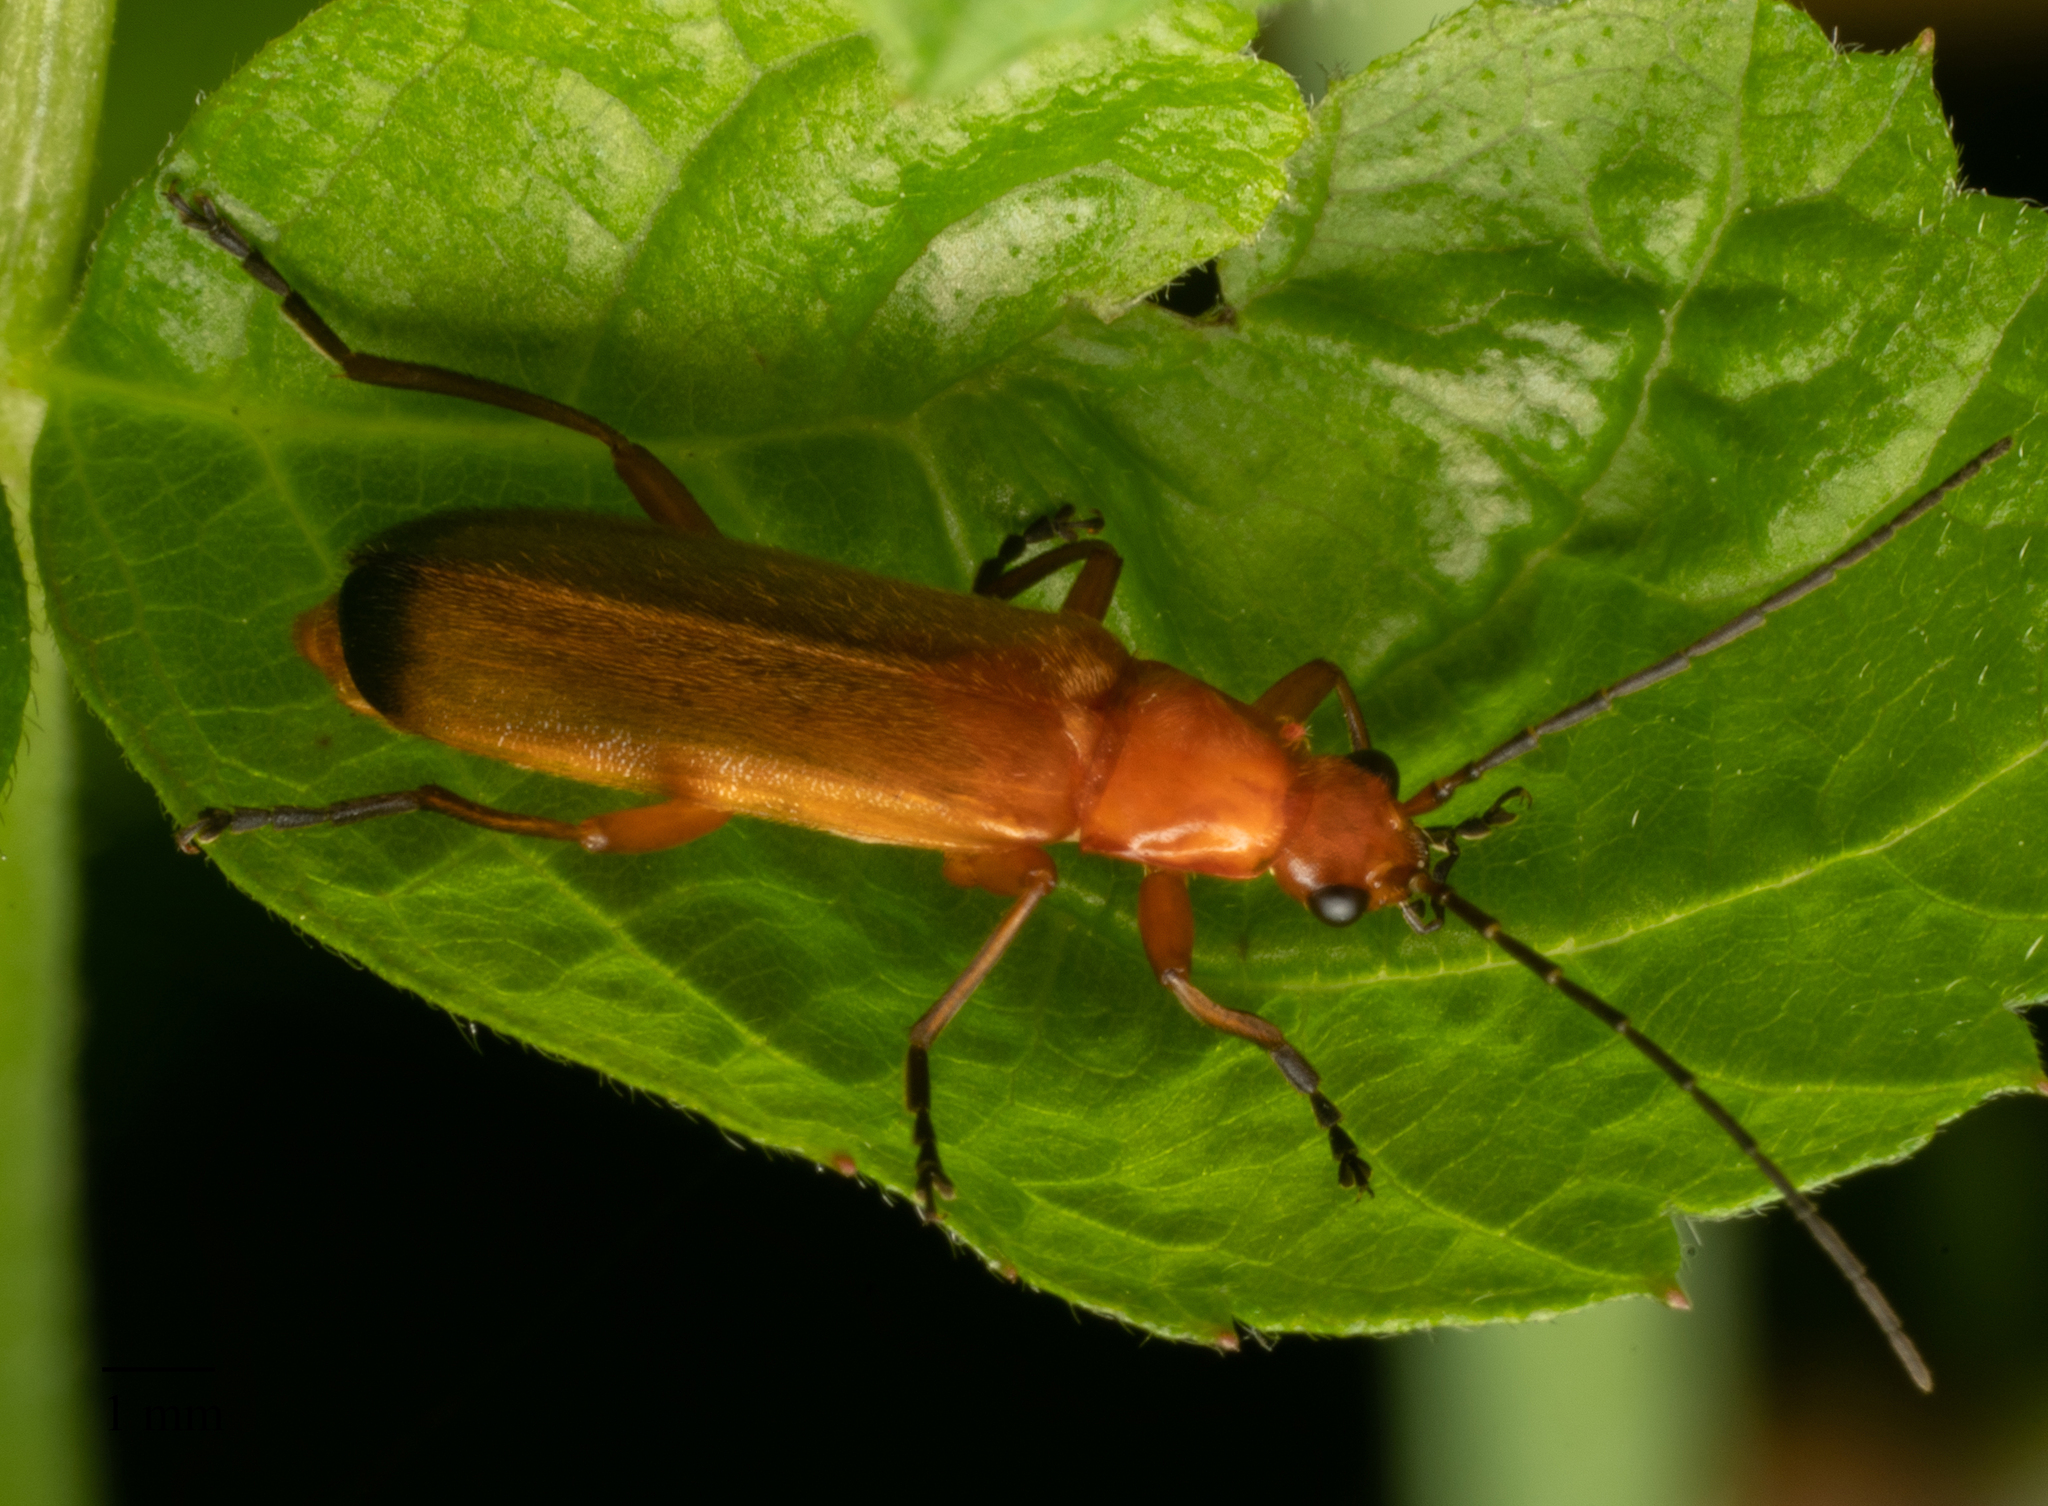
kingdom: Animalia
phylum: Arthropoda
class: Insecta
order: Coleoptera
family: Cantharidae
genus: Rhagonycha
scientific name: Rhagonycha fulva
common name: Common red soldier beetle
